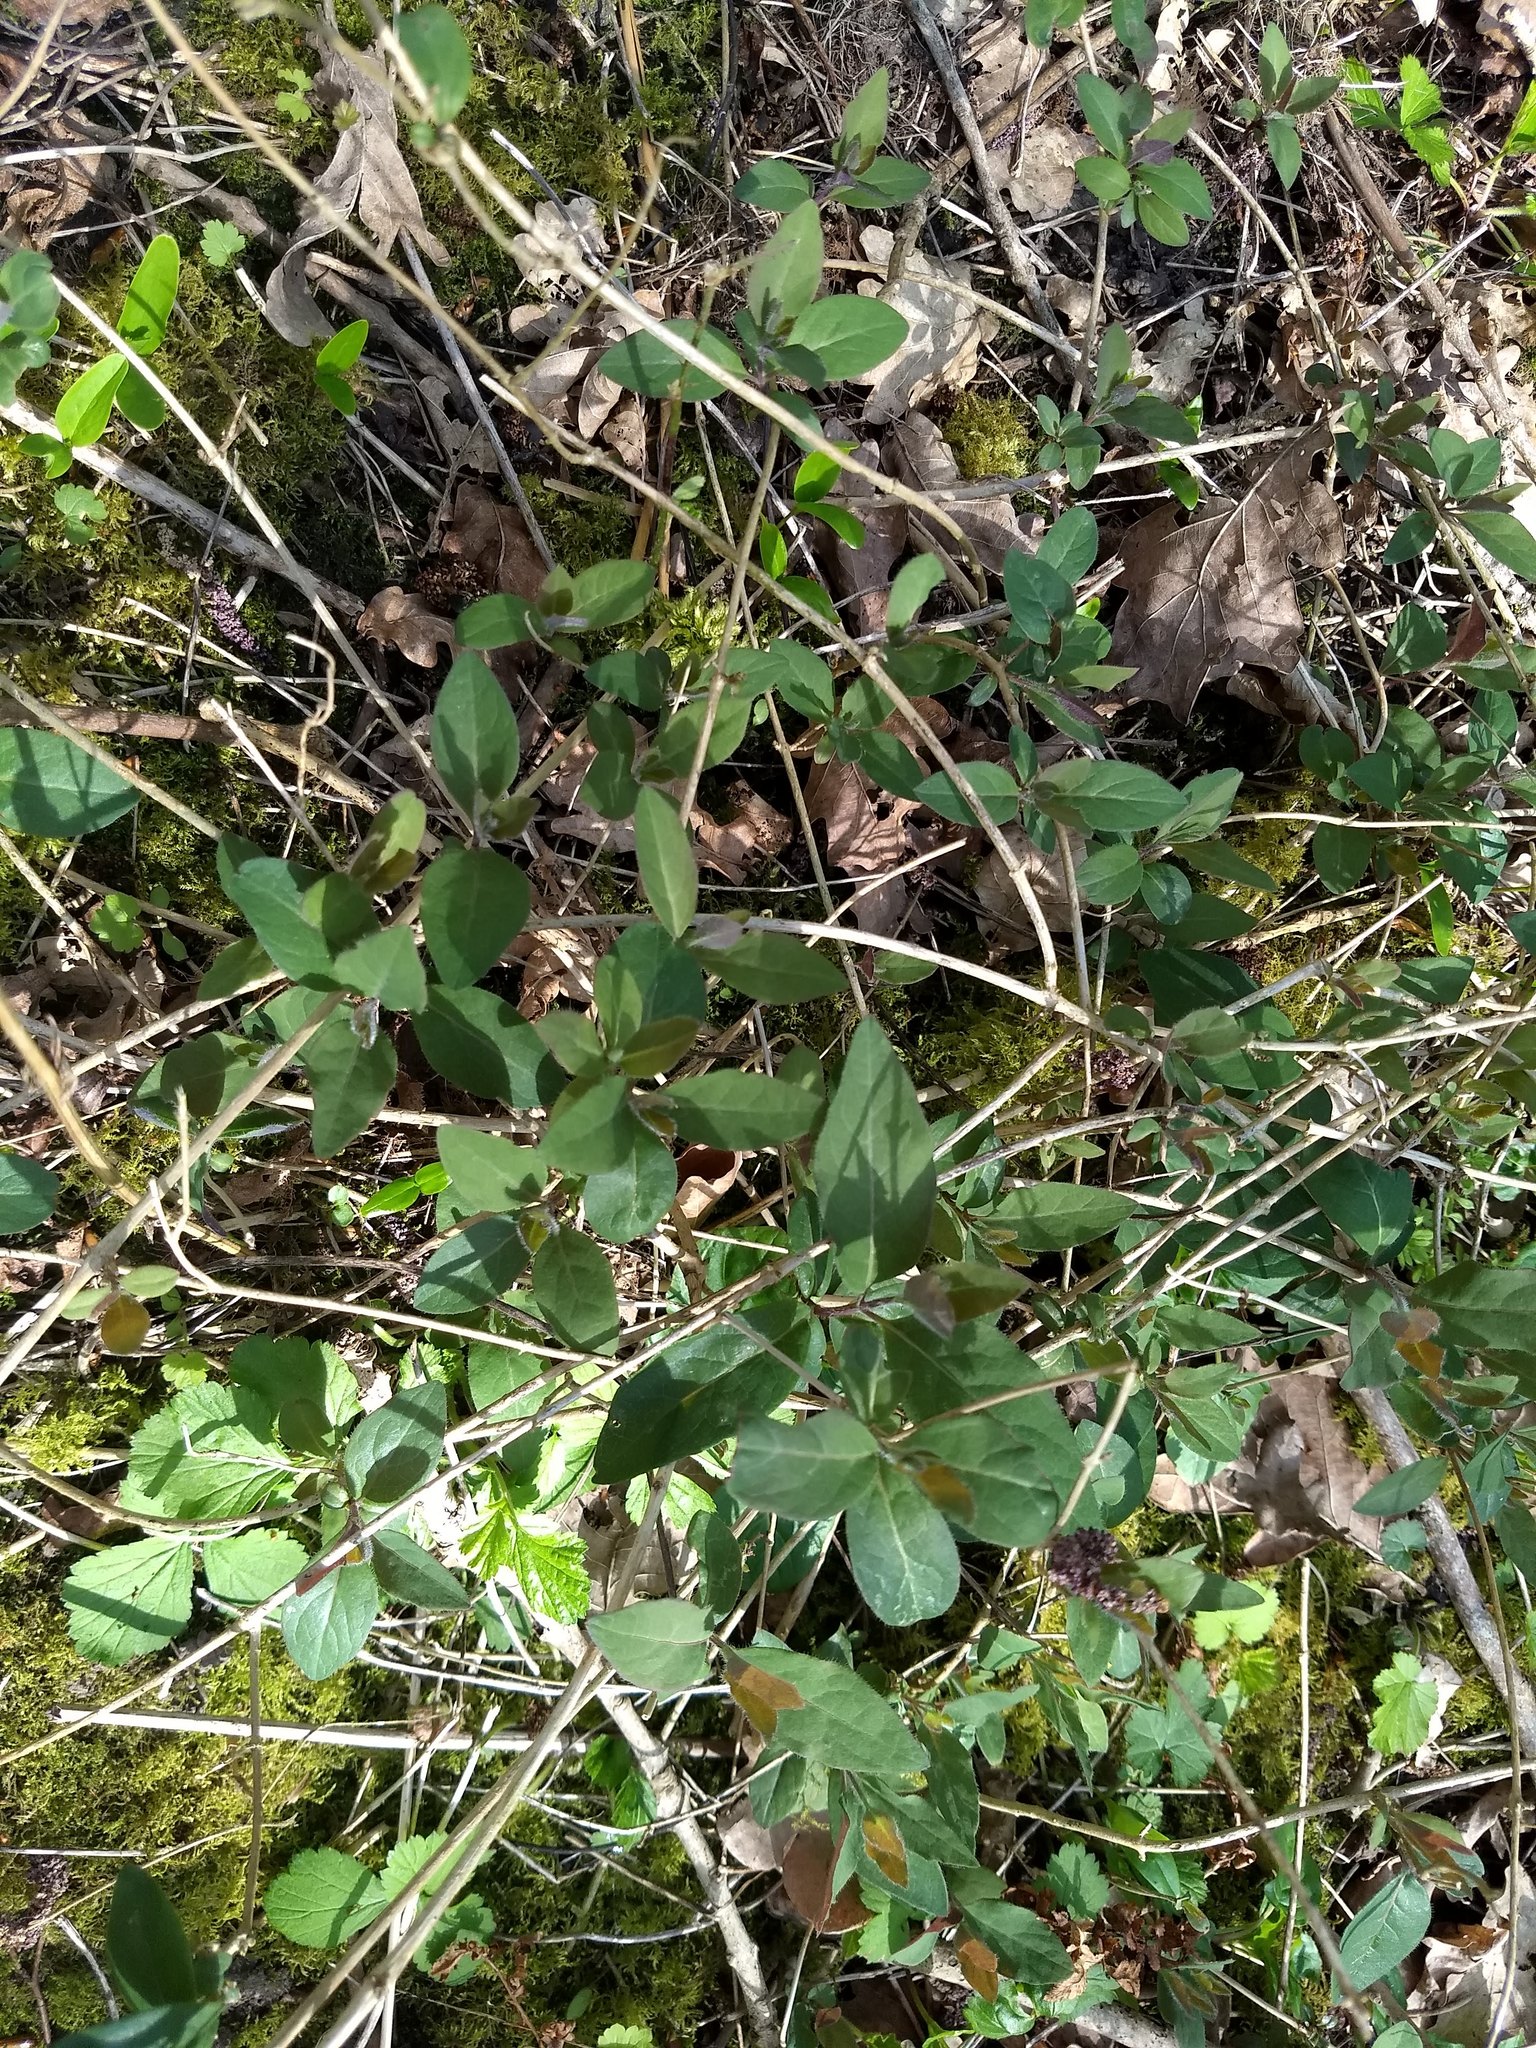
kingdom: Plantae
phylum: Tracheophyta
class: Magnoliopsida
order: Dipsacales
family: Caprifoliaceae
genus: Lonicera
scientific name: Lonicera periclymenum
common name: European honeysuckle
